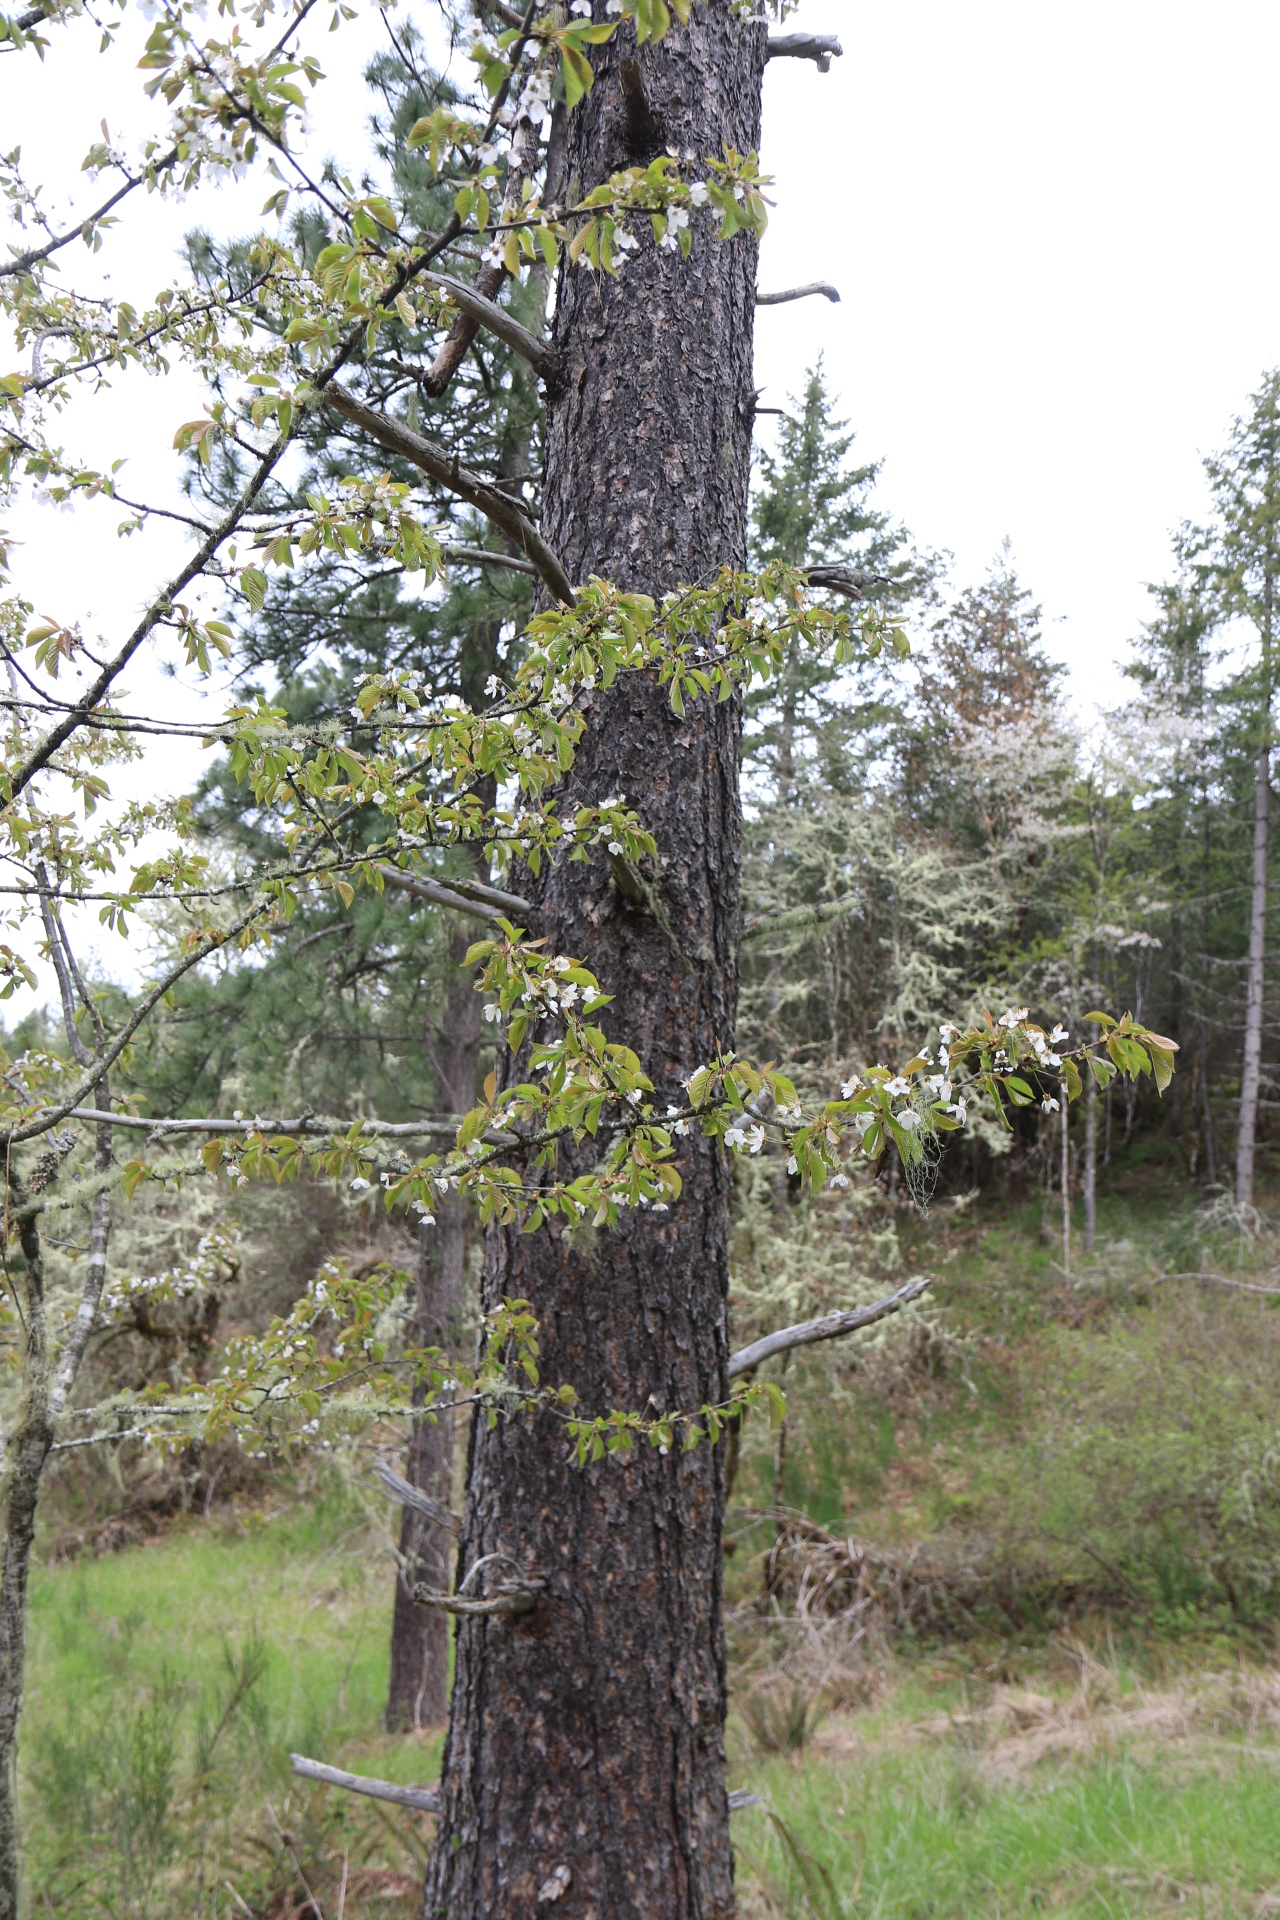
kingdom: Plantae
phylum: Tracheophyta
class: Pinopsida
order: Pinales
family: Pinaceae
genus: Pinus
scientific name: Pinus ponderosa
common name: Western yellow-pine
